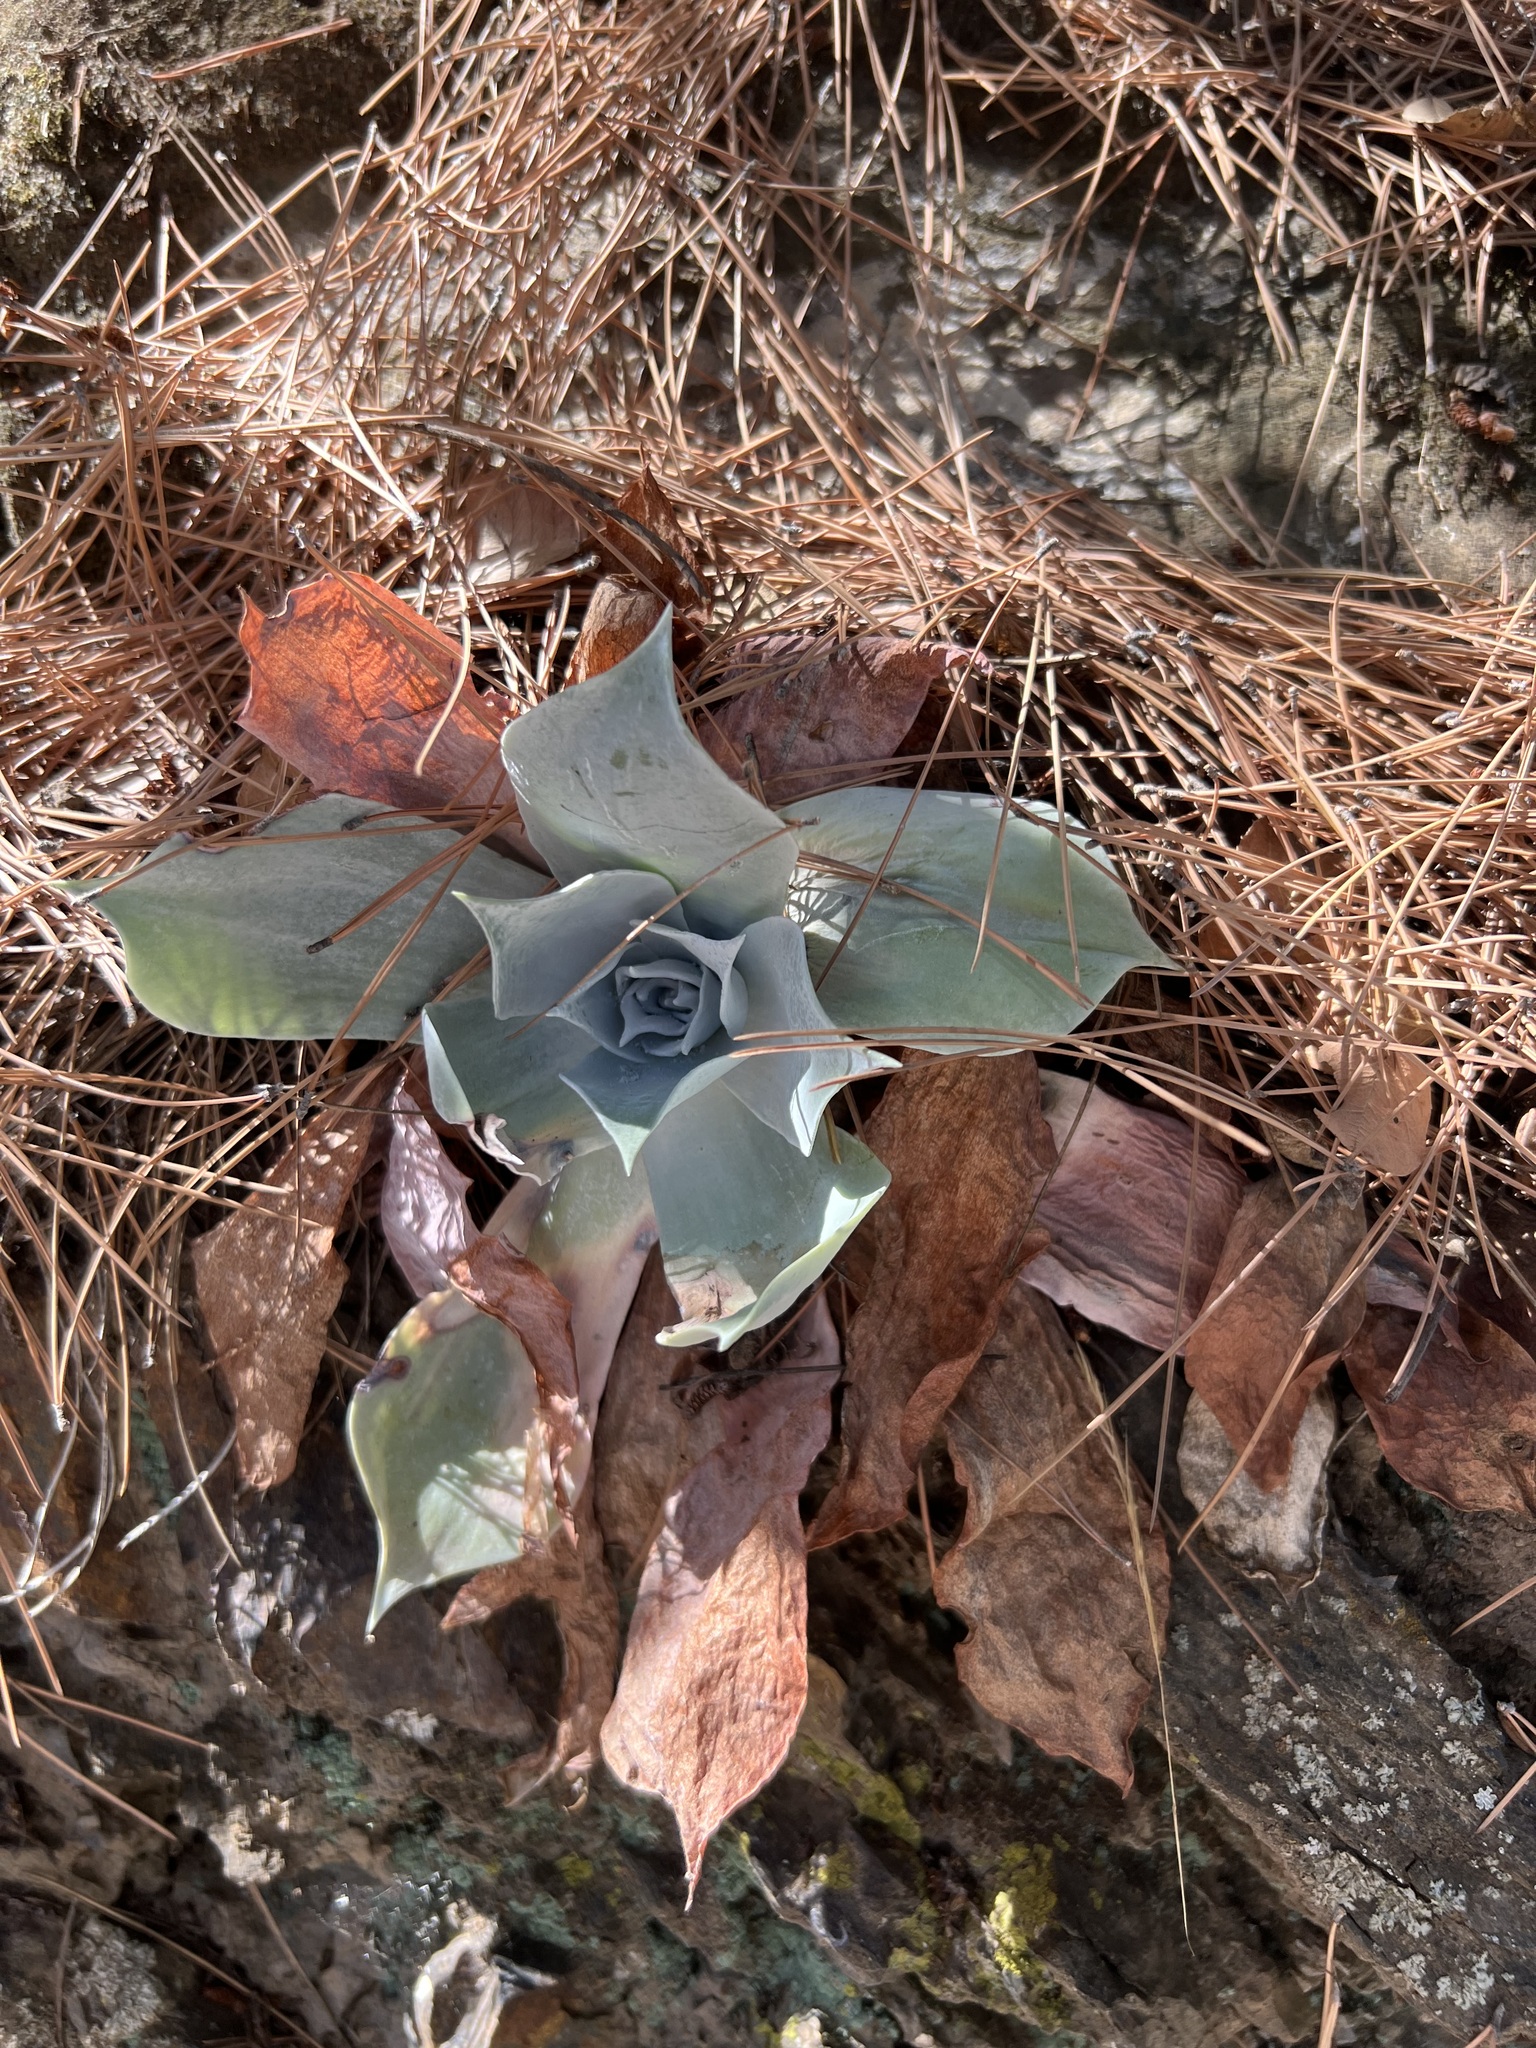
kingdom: Plantae
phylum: Tracheophyta
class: Magnoliopsida
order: Saxifragales
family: Crassulaceae
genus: Dudleya
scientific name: Dudleya pulverulenta
